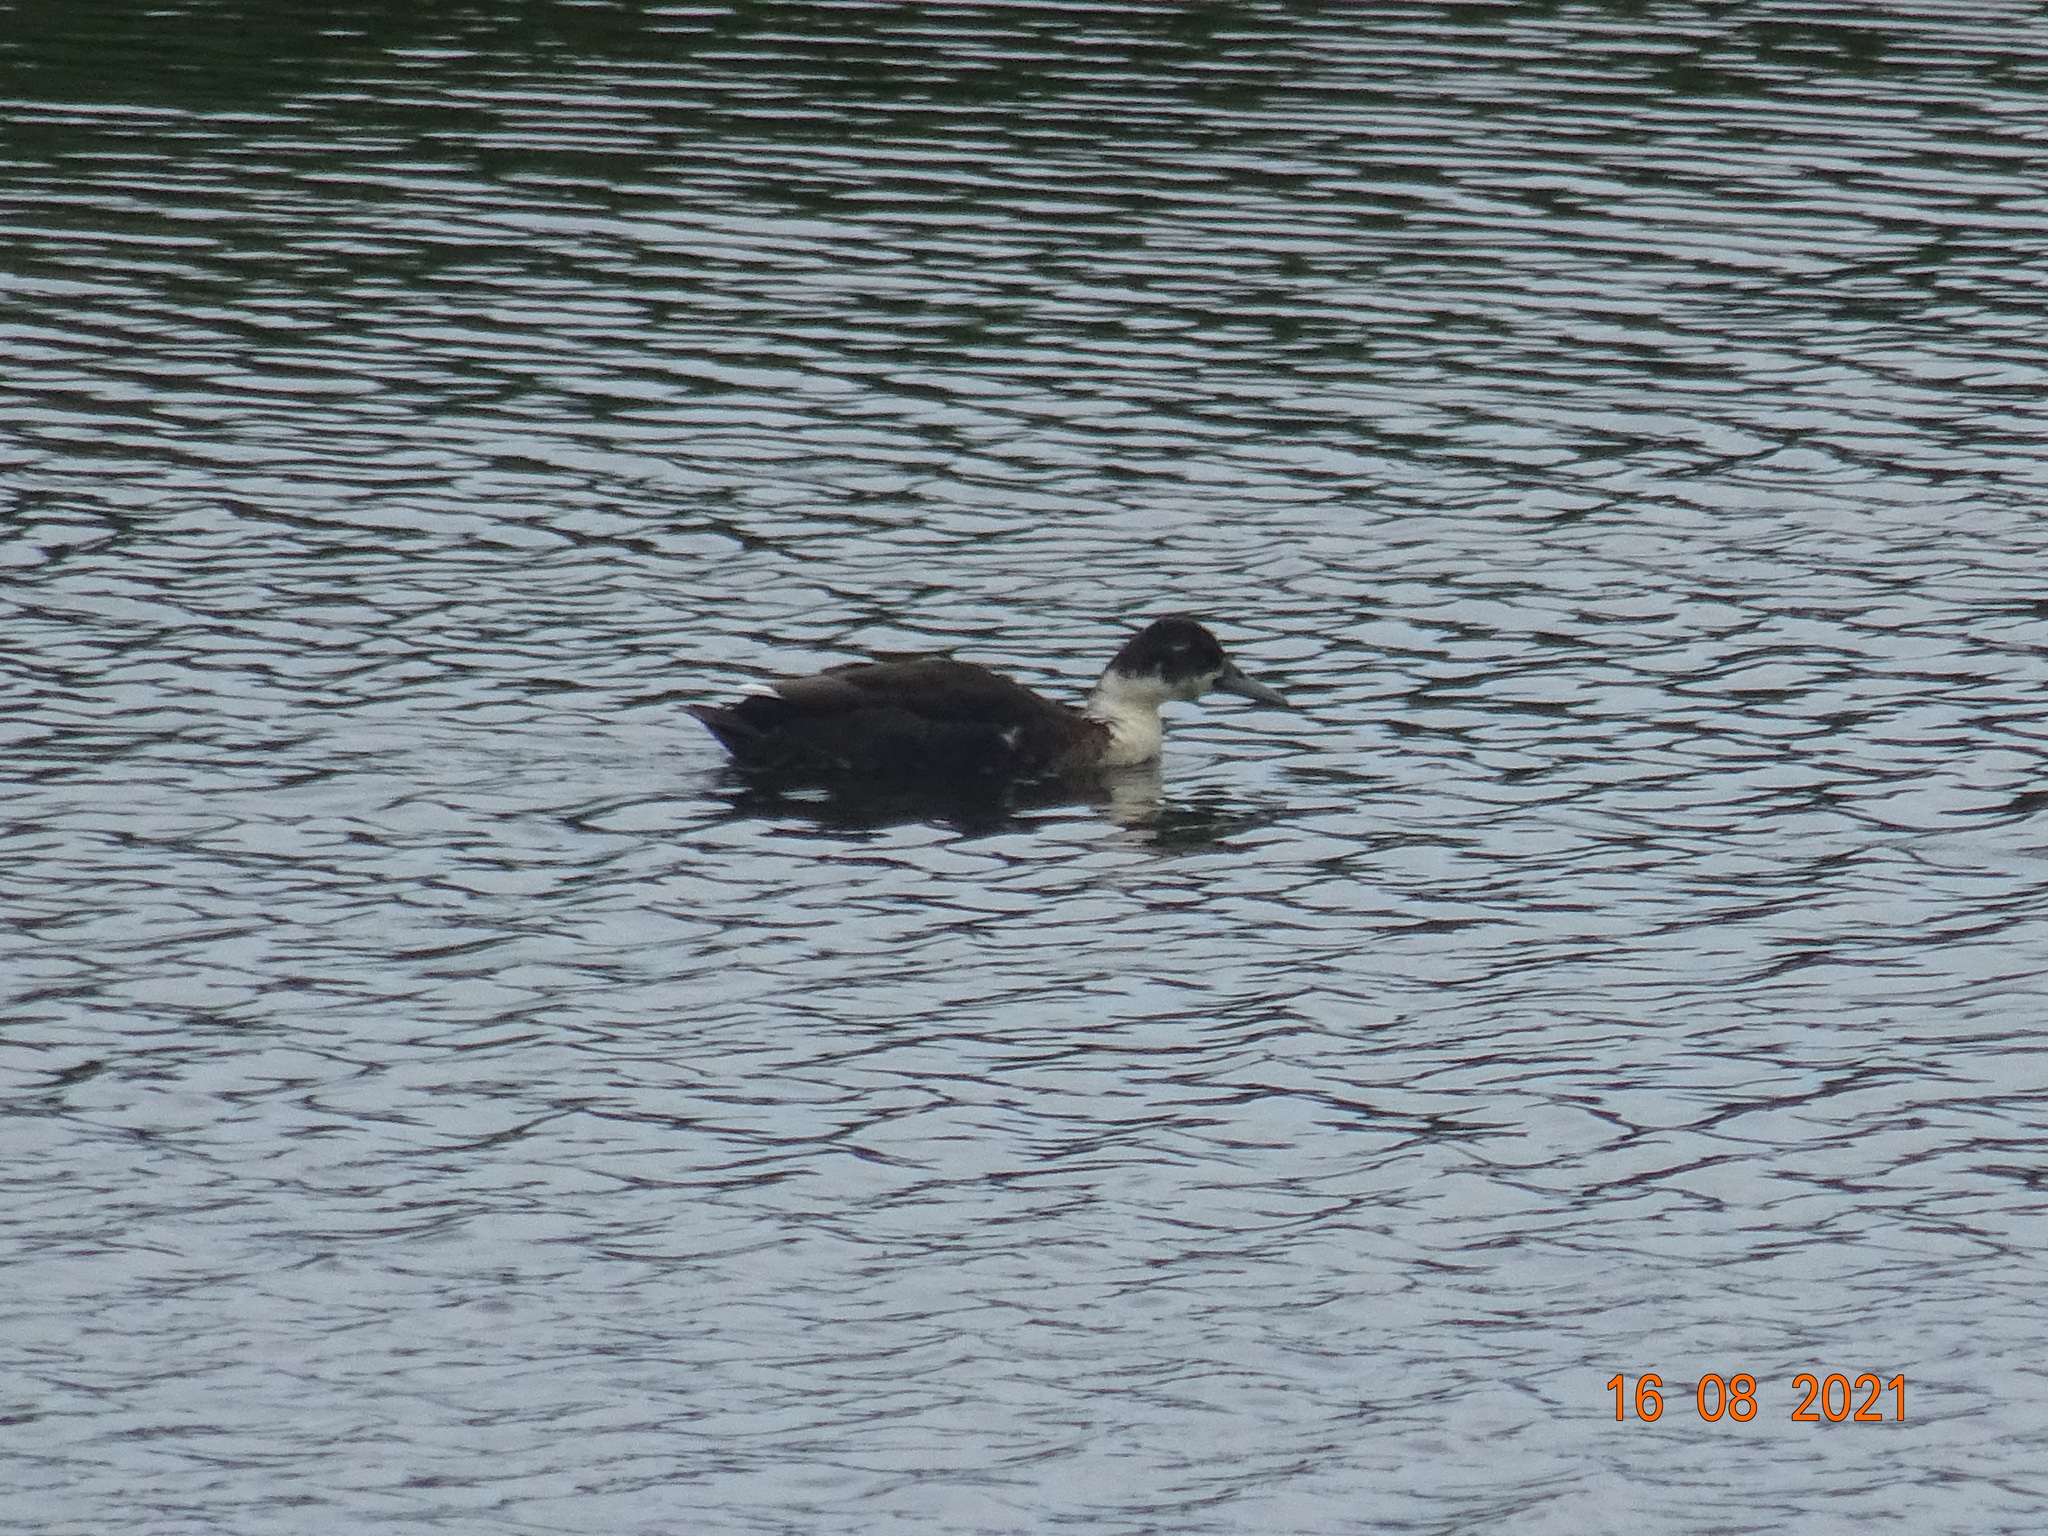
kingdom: Animalia
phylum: Chordata
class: Aves
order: Anseriformes
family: Anatidae
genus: Anas
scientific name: Anas platyrhynchos
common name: Mallard
